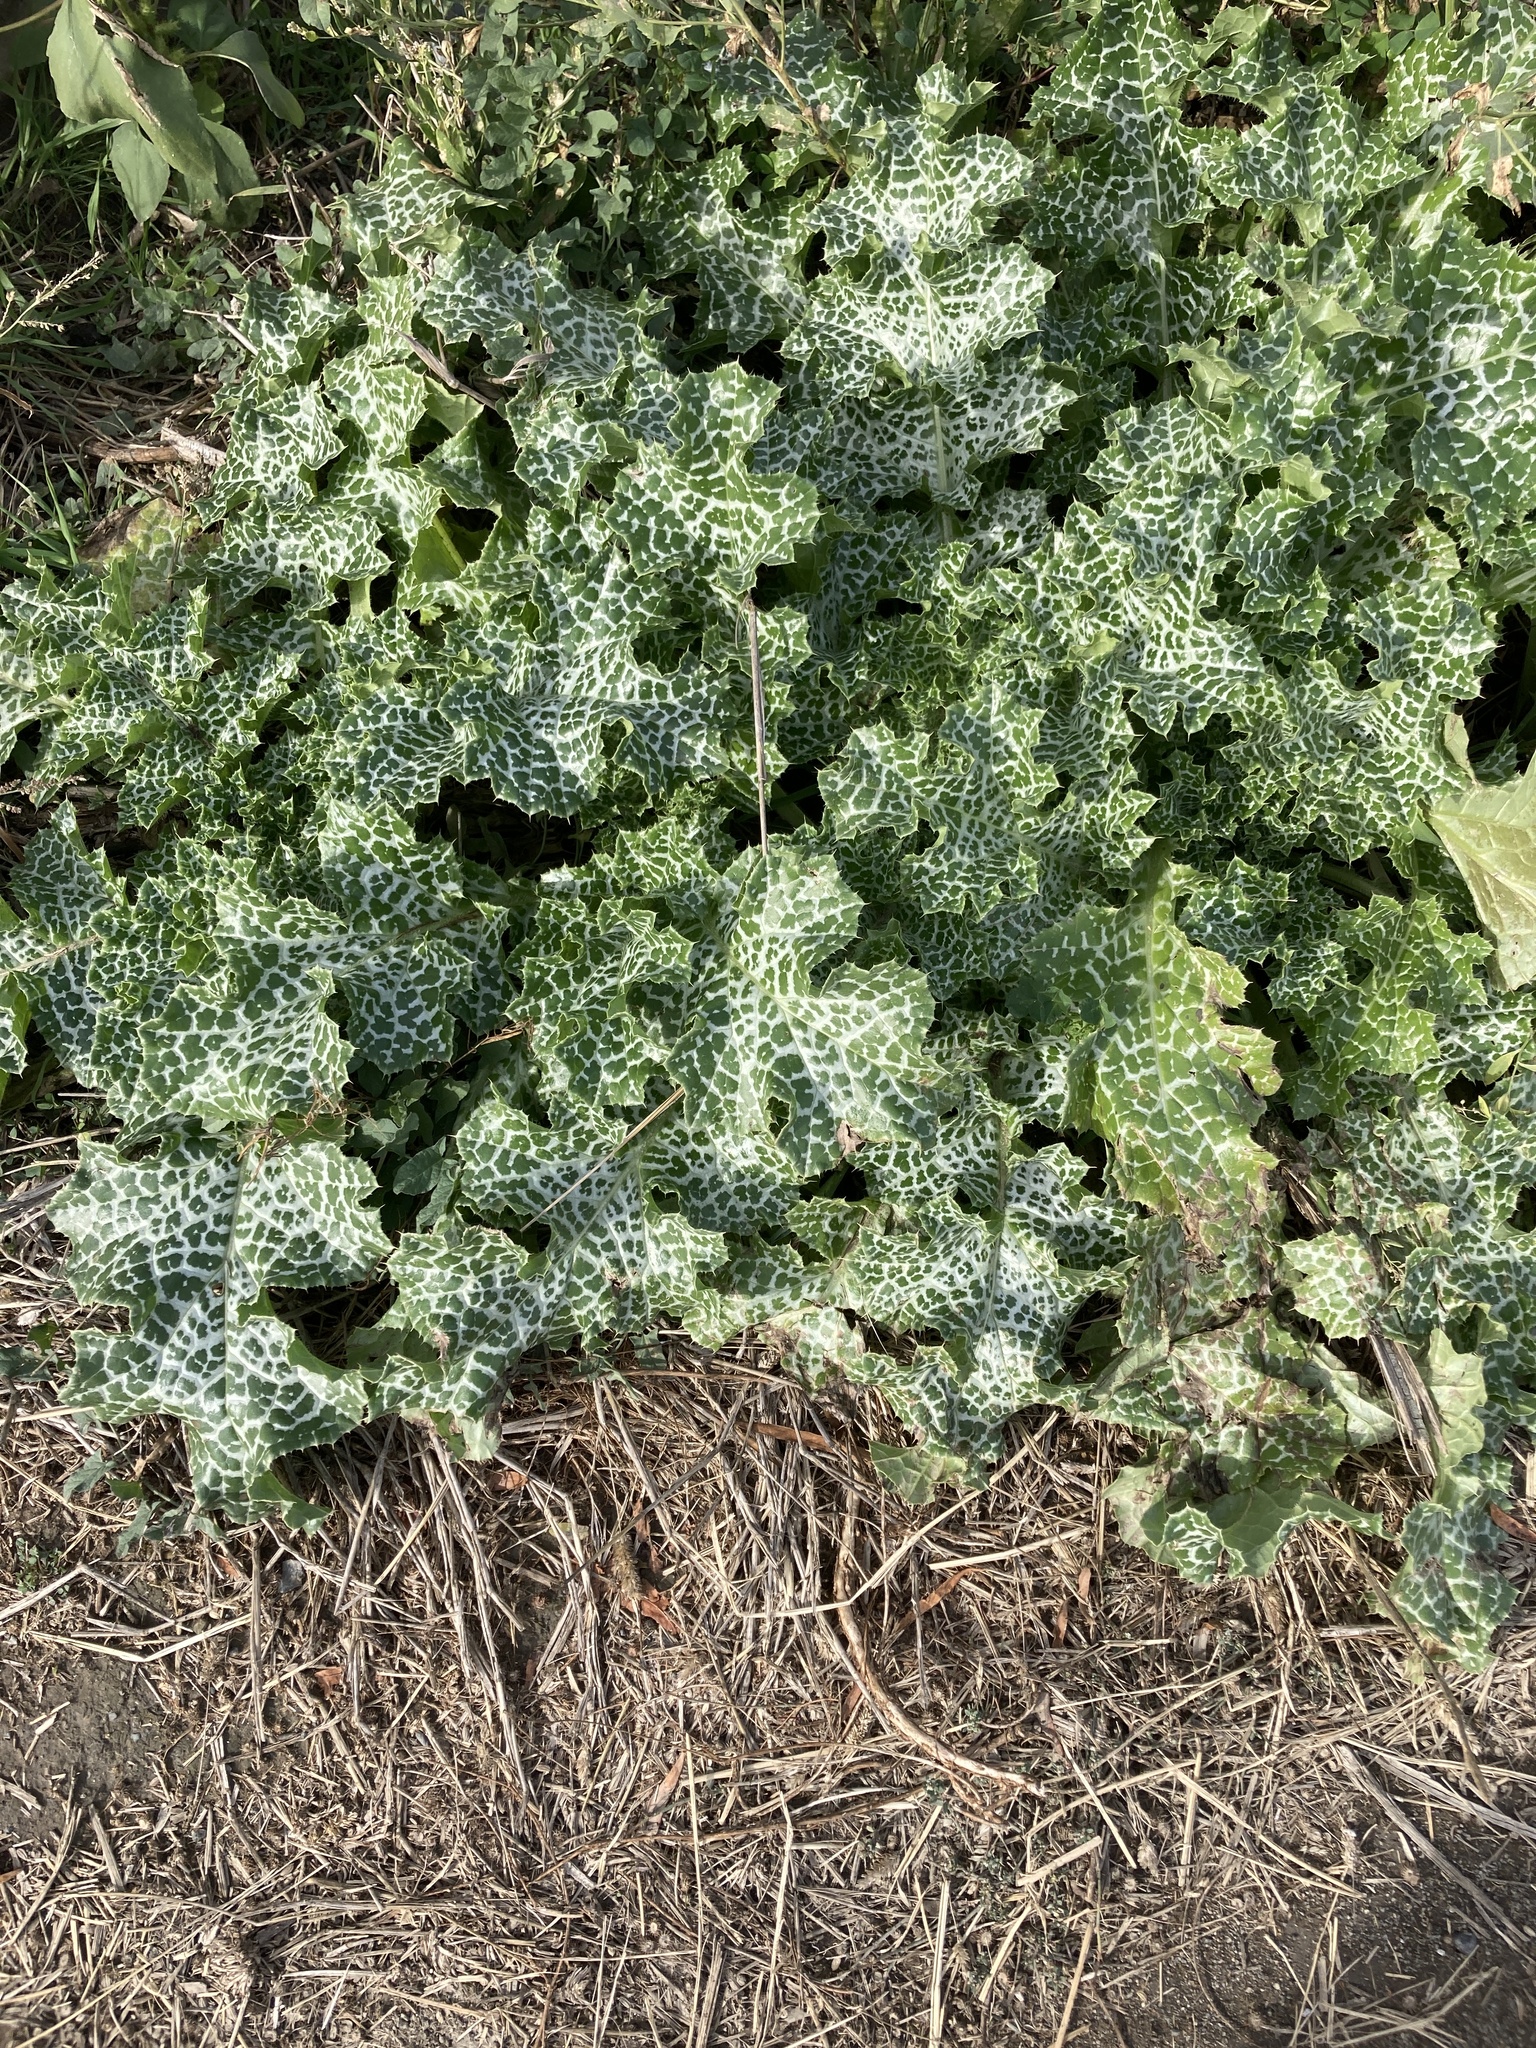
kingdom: Plantae
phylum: Tracheophyta
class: Magnoliopsida
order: Asterales
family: Asteraceae
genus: Silybum
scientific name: Silybum marianum
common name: Milk thistle
